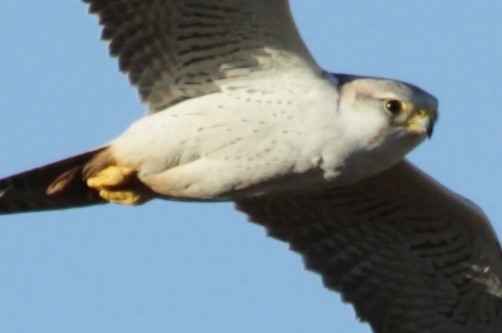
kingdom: Animalia
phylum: Chordata
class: Aves
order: Falconiformes
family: Falconidae
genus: Falco
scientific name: Falco biarmicus
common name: Lanner falcon
